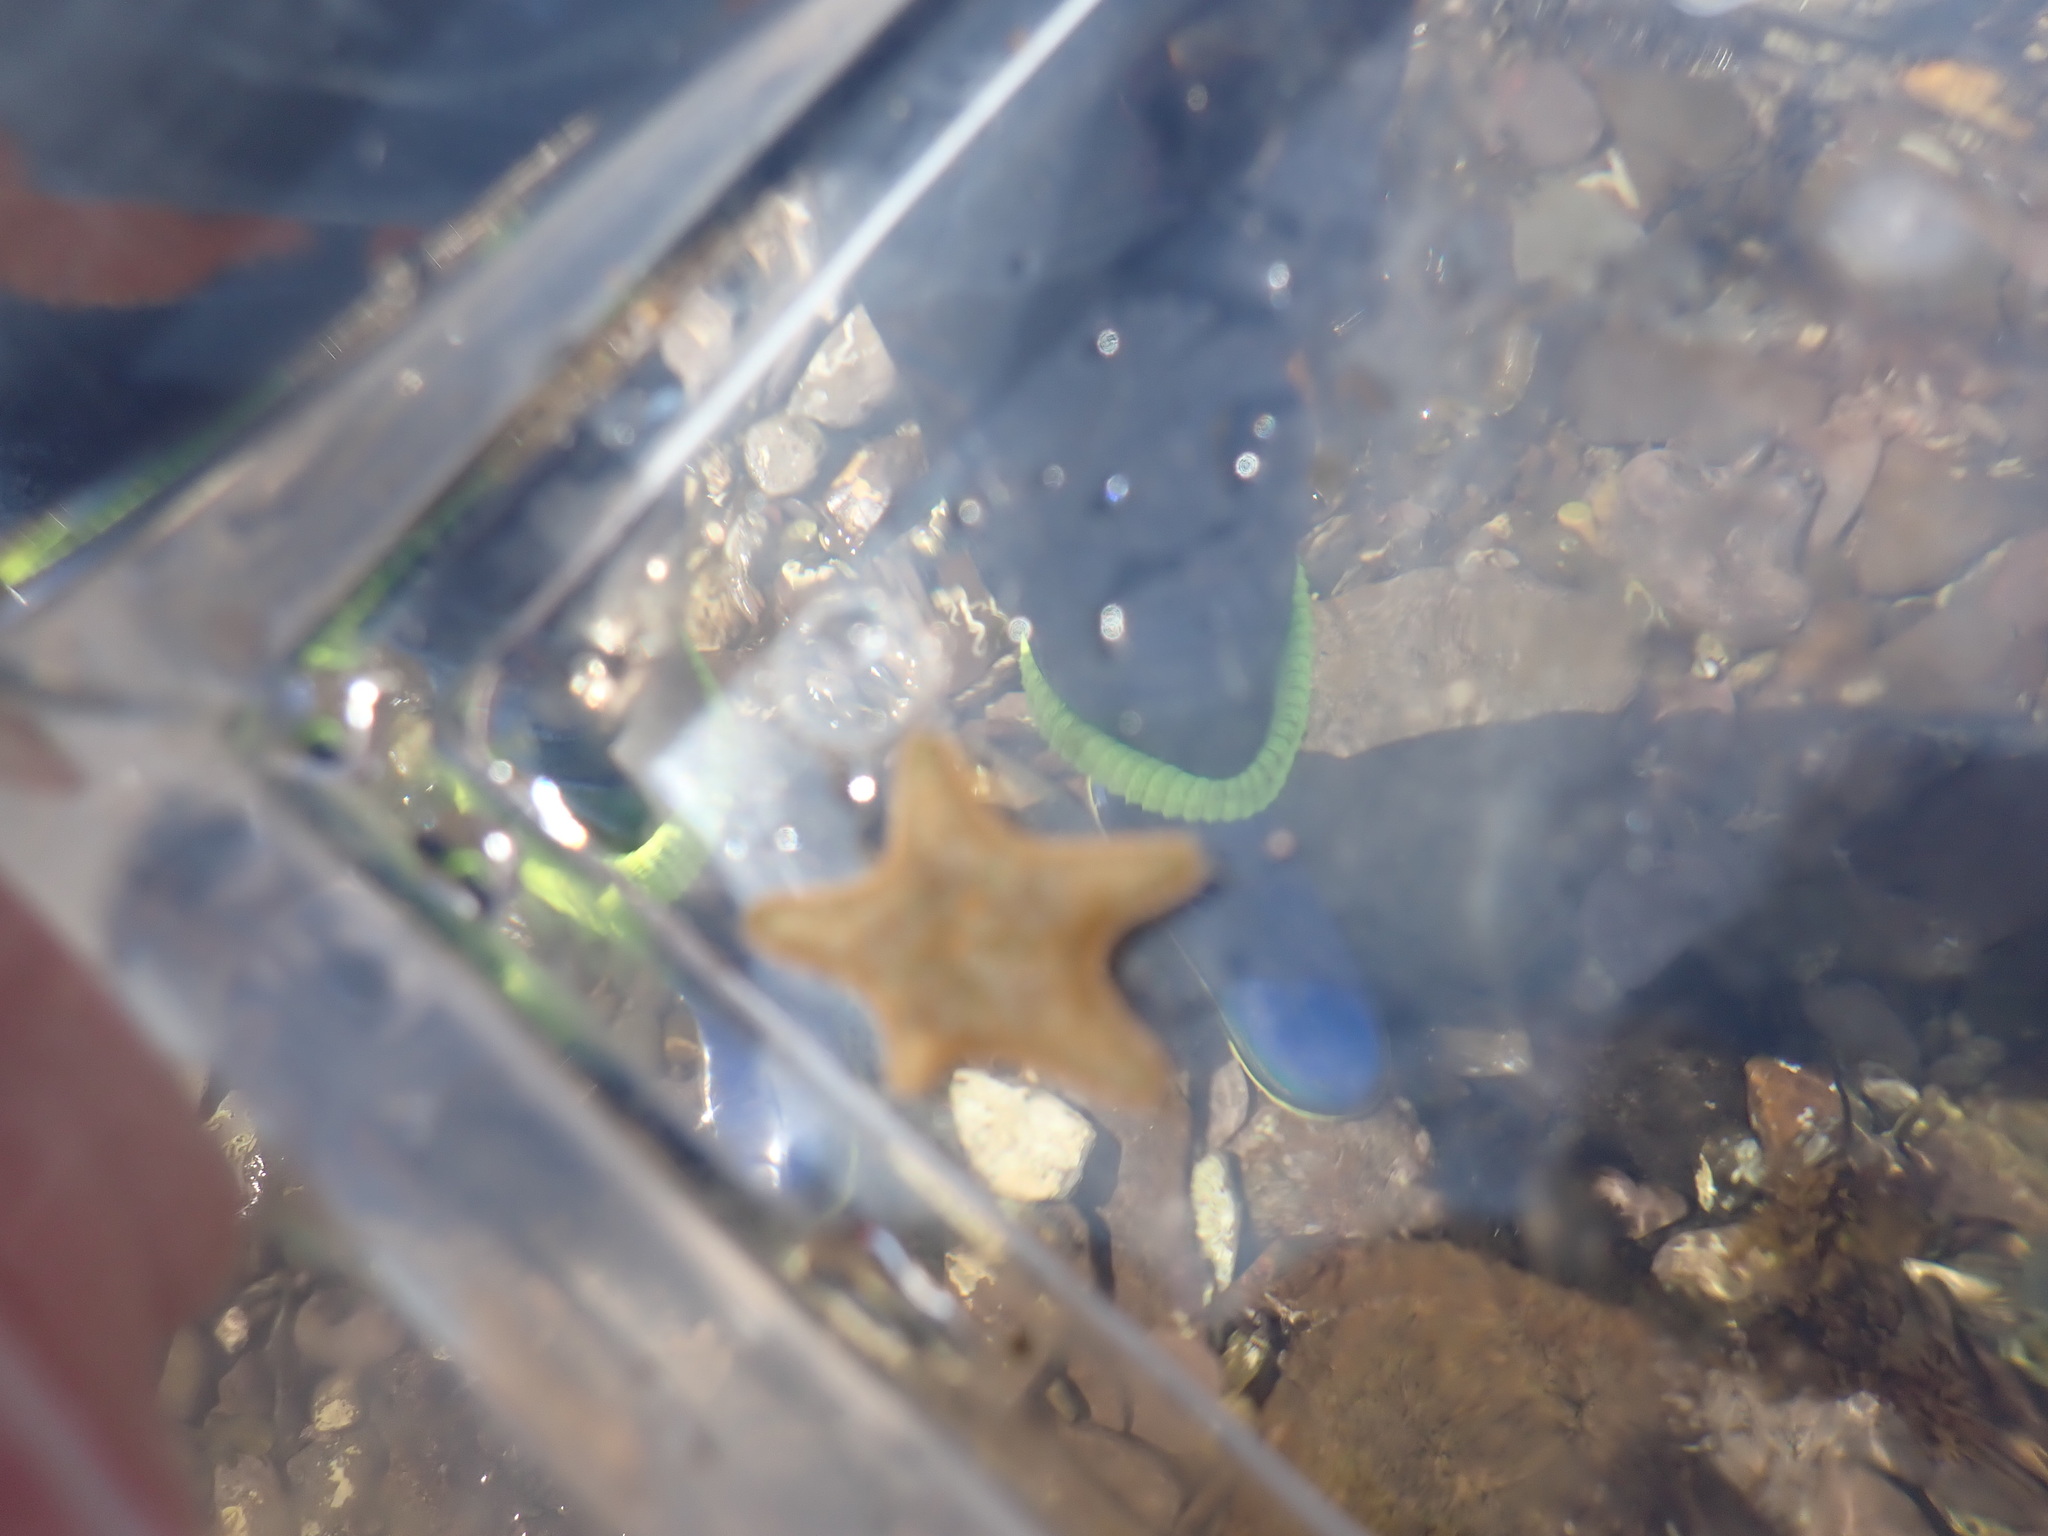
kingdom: Animalia
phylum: Echinodermata
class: Asteroidea
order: Valvatida
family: Asterinidae
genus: Asterina
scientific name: Asterina gibbosa
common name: Cushion star
